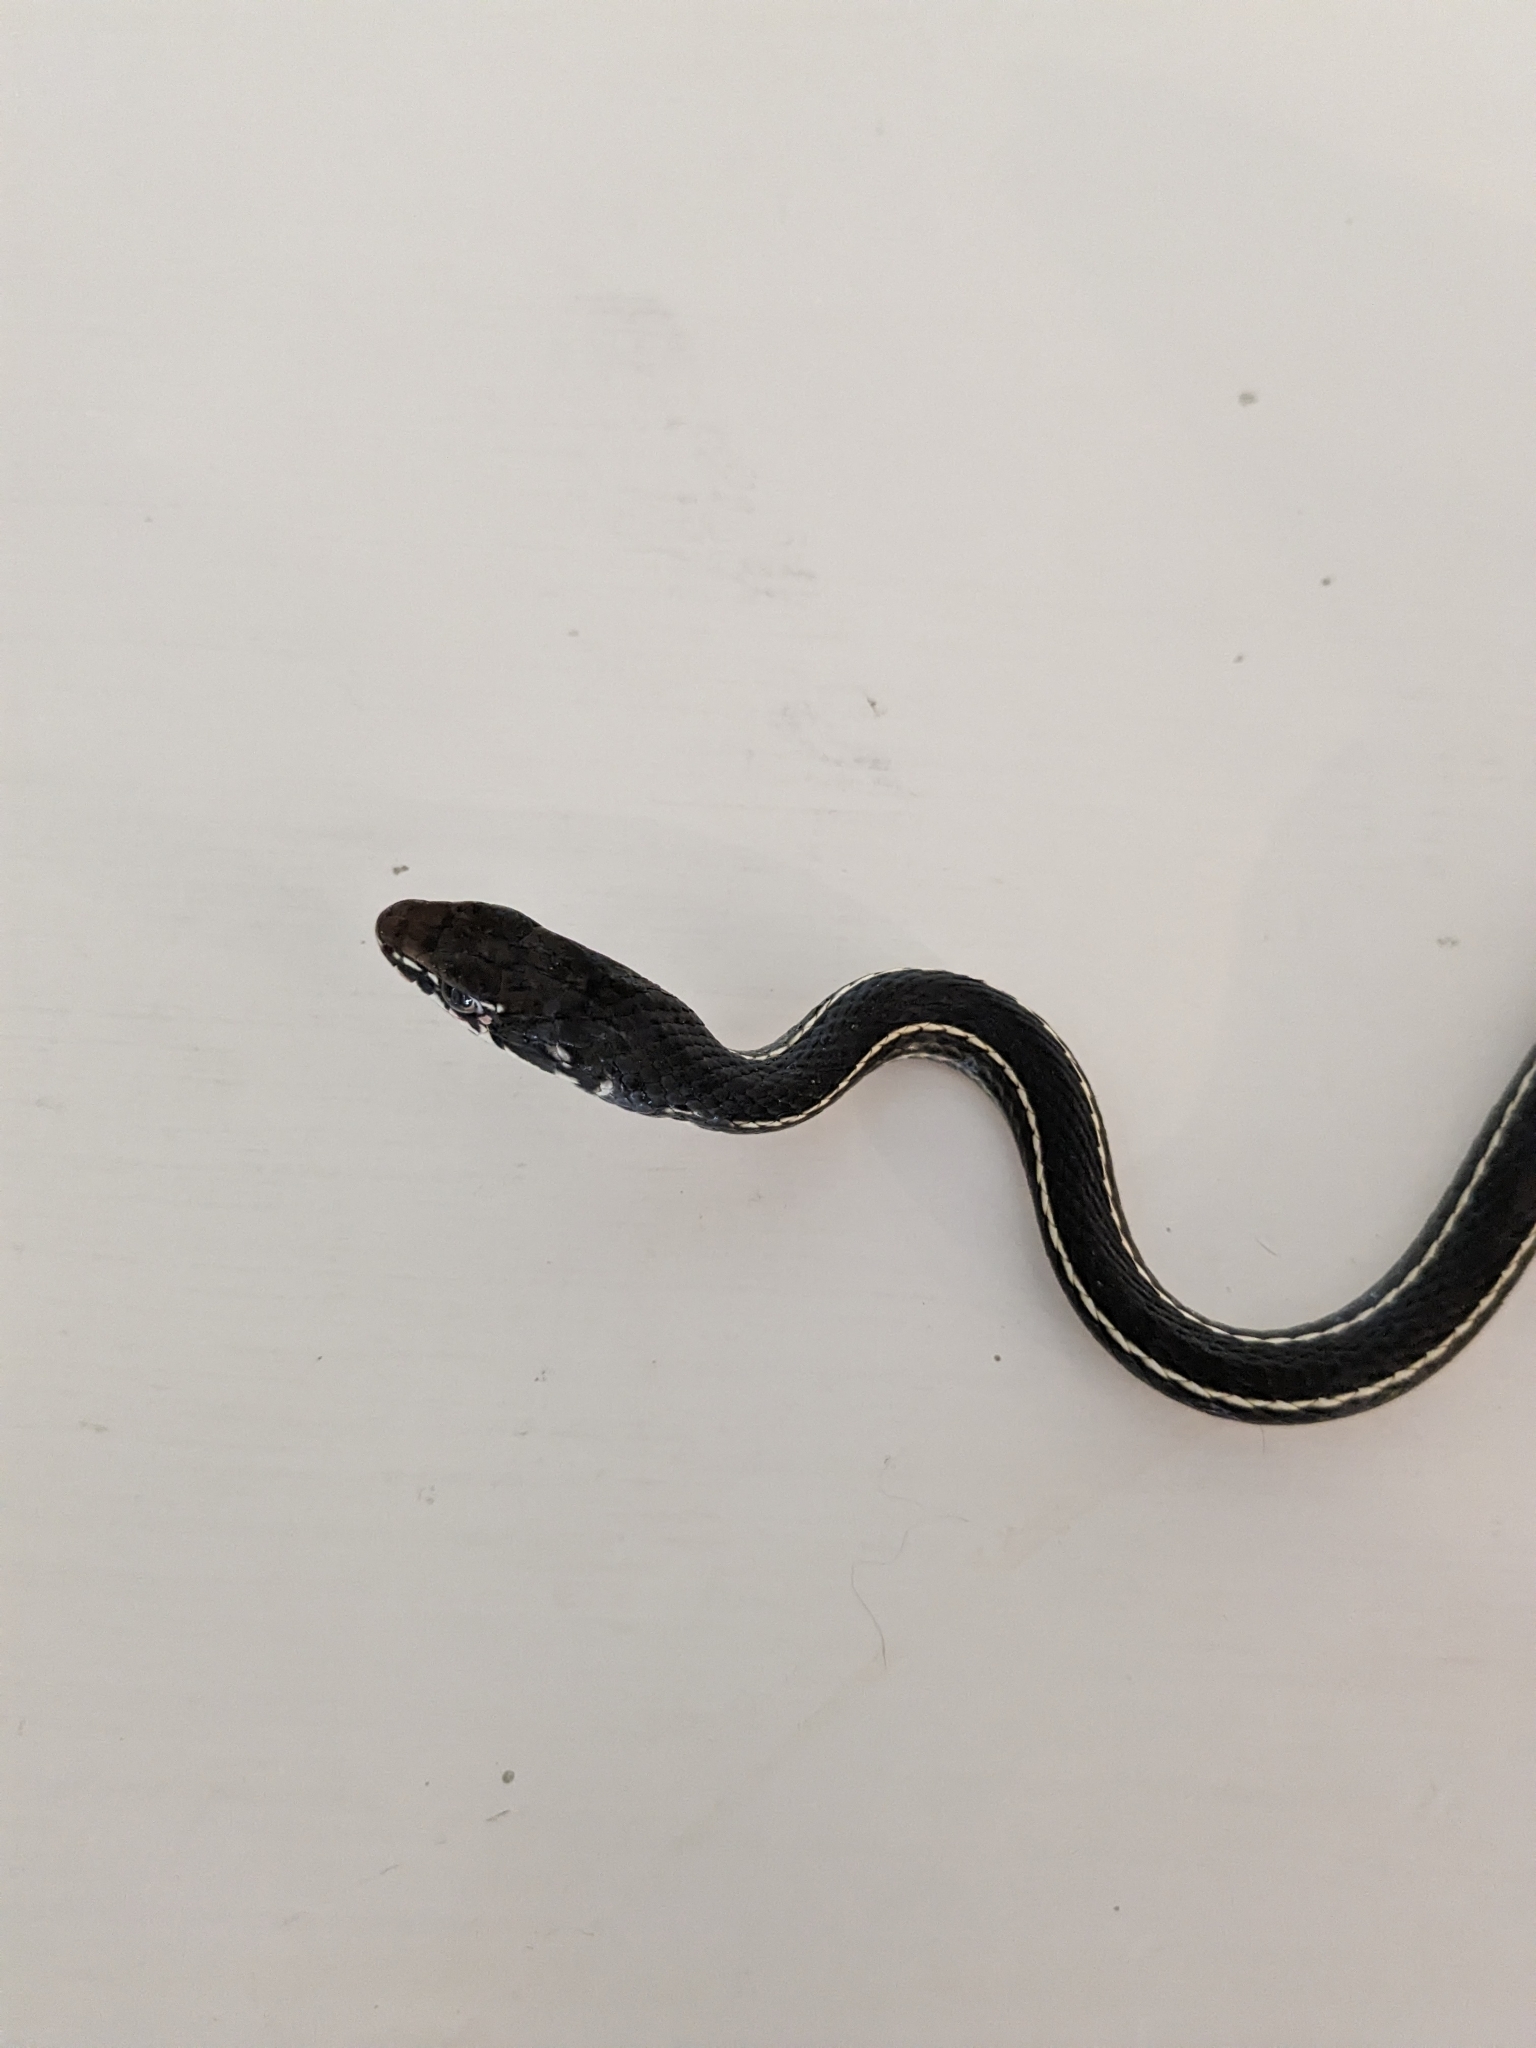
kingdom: Animalia
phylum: Chordata
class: Squamata
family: Colubridae
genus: Masticophis
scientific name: Masticophis lateralis
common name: Striped racer
